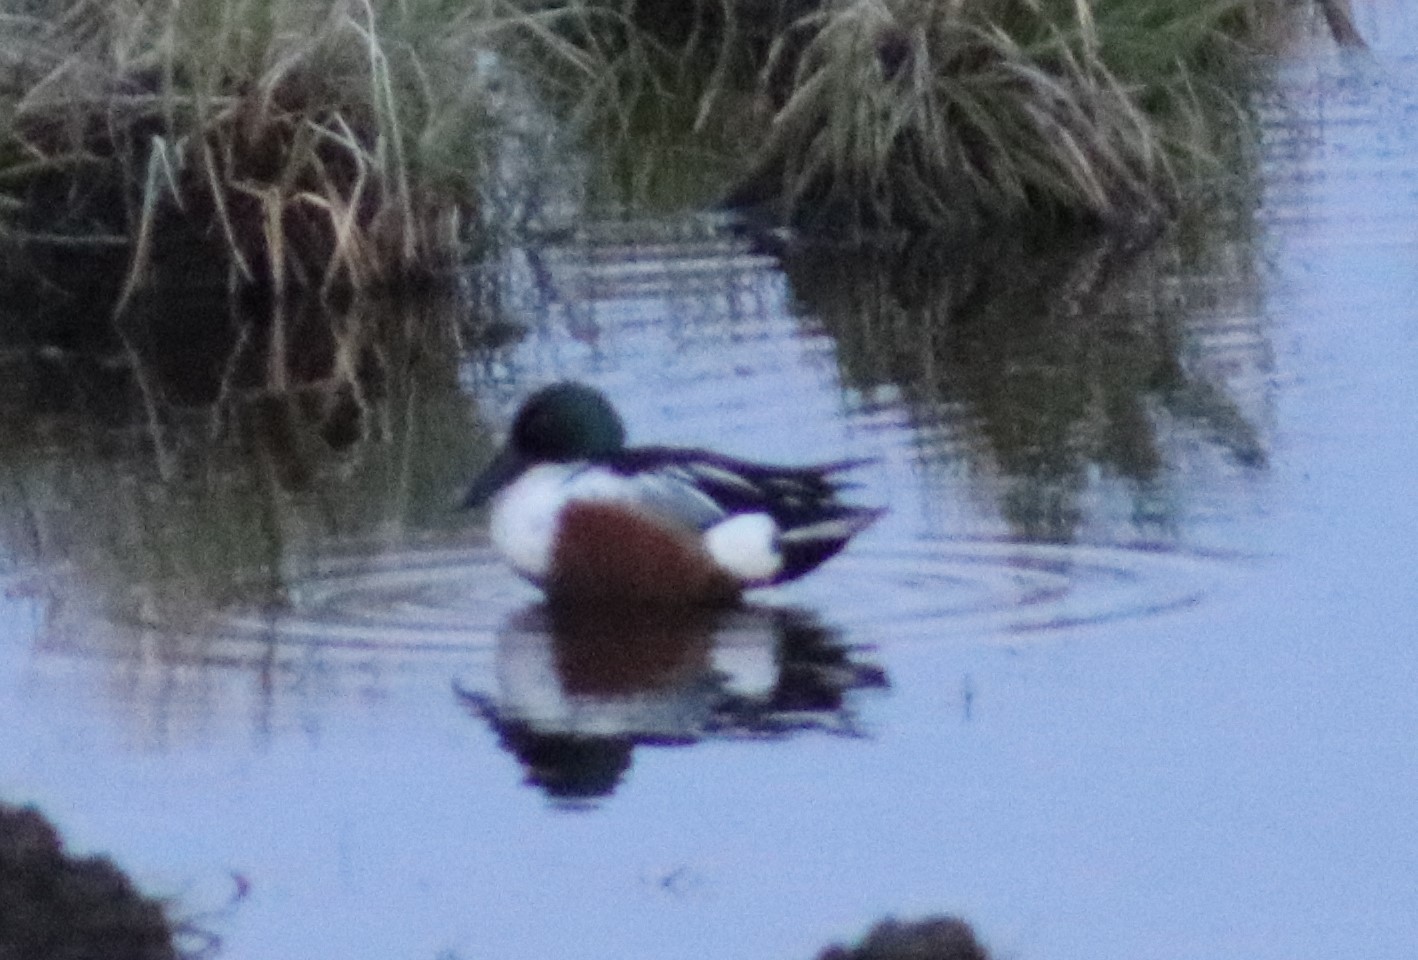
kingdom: Animalia
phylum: Chordata
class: Aves
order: Anseriformes
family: Anatidae
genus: Spatula
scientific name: Spatula clypeata
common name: Northern shoveler
